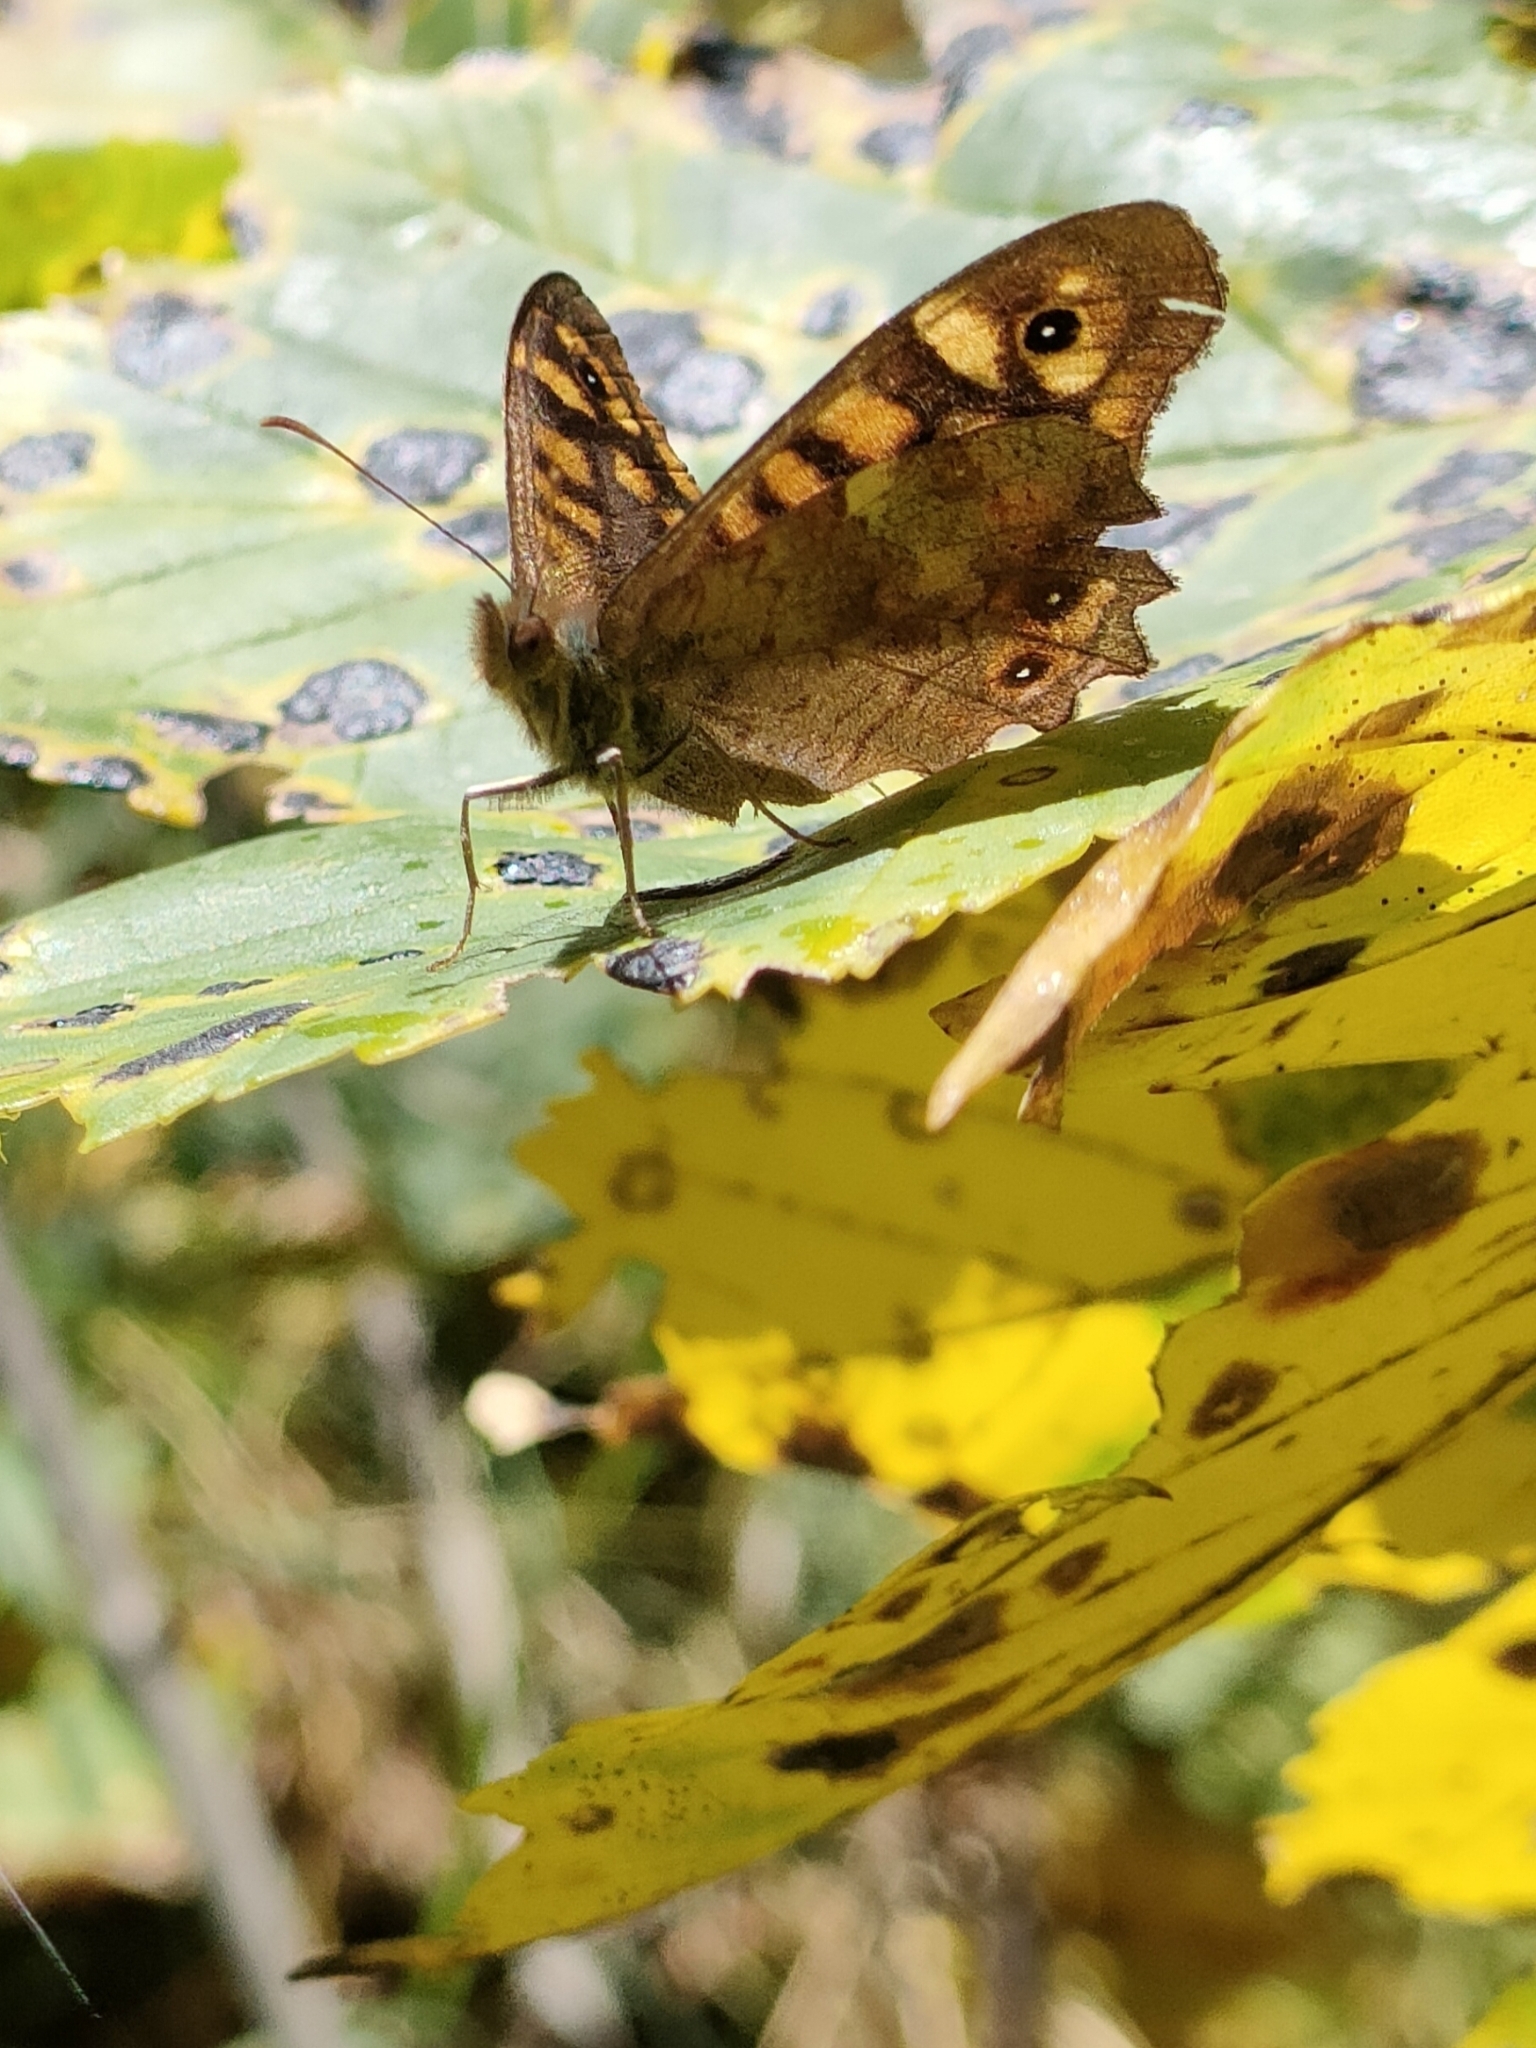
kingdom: Animalia
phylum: Arthropoda
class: Insecta
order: Lepidoptera
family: Nymphalidae
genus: Pararge
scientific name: Pararge aegeria
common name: Speckled wood
